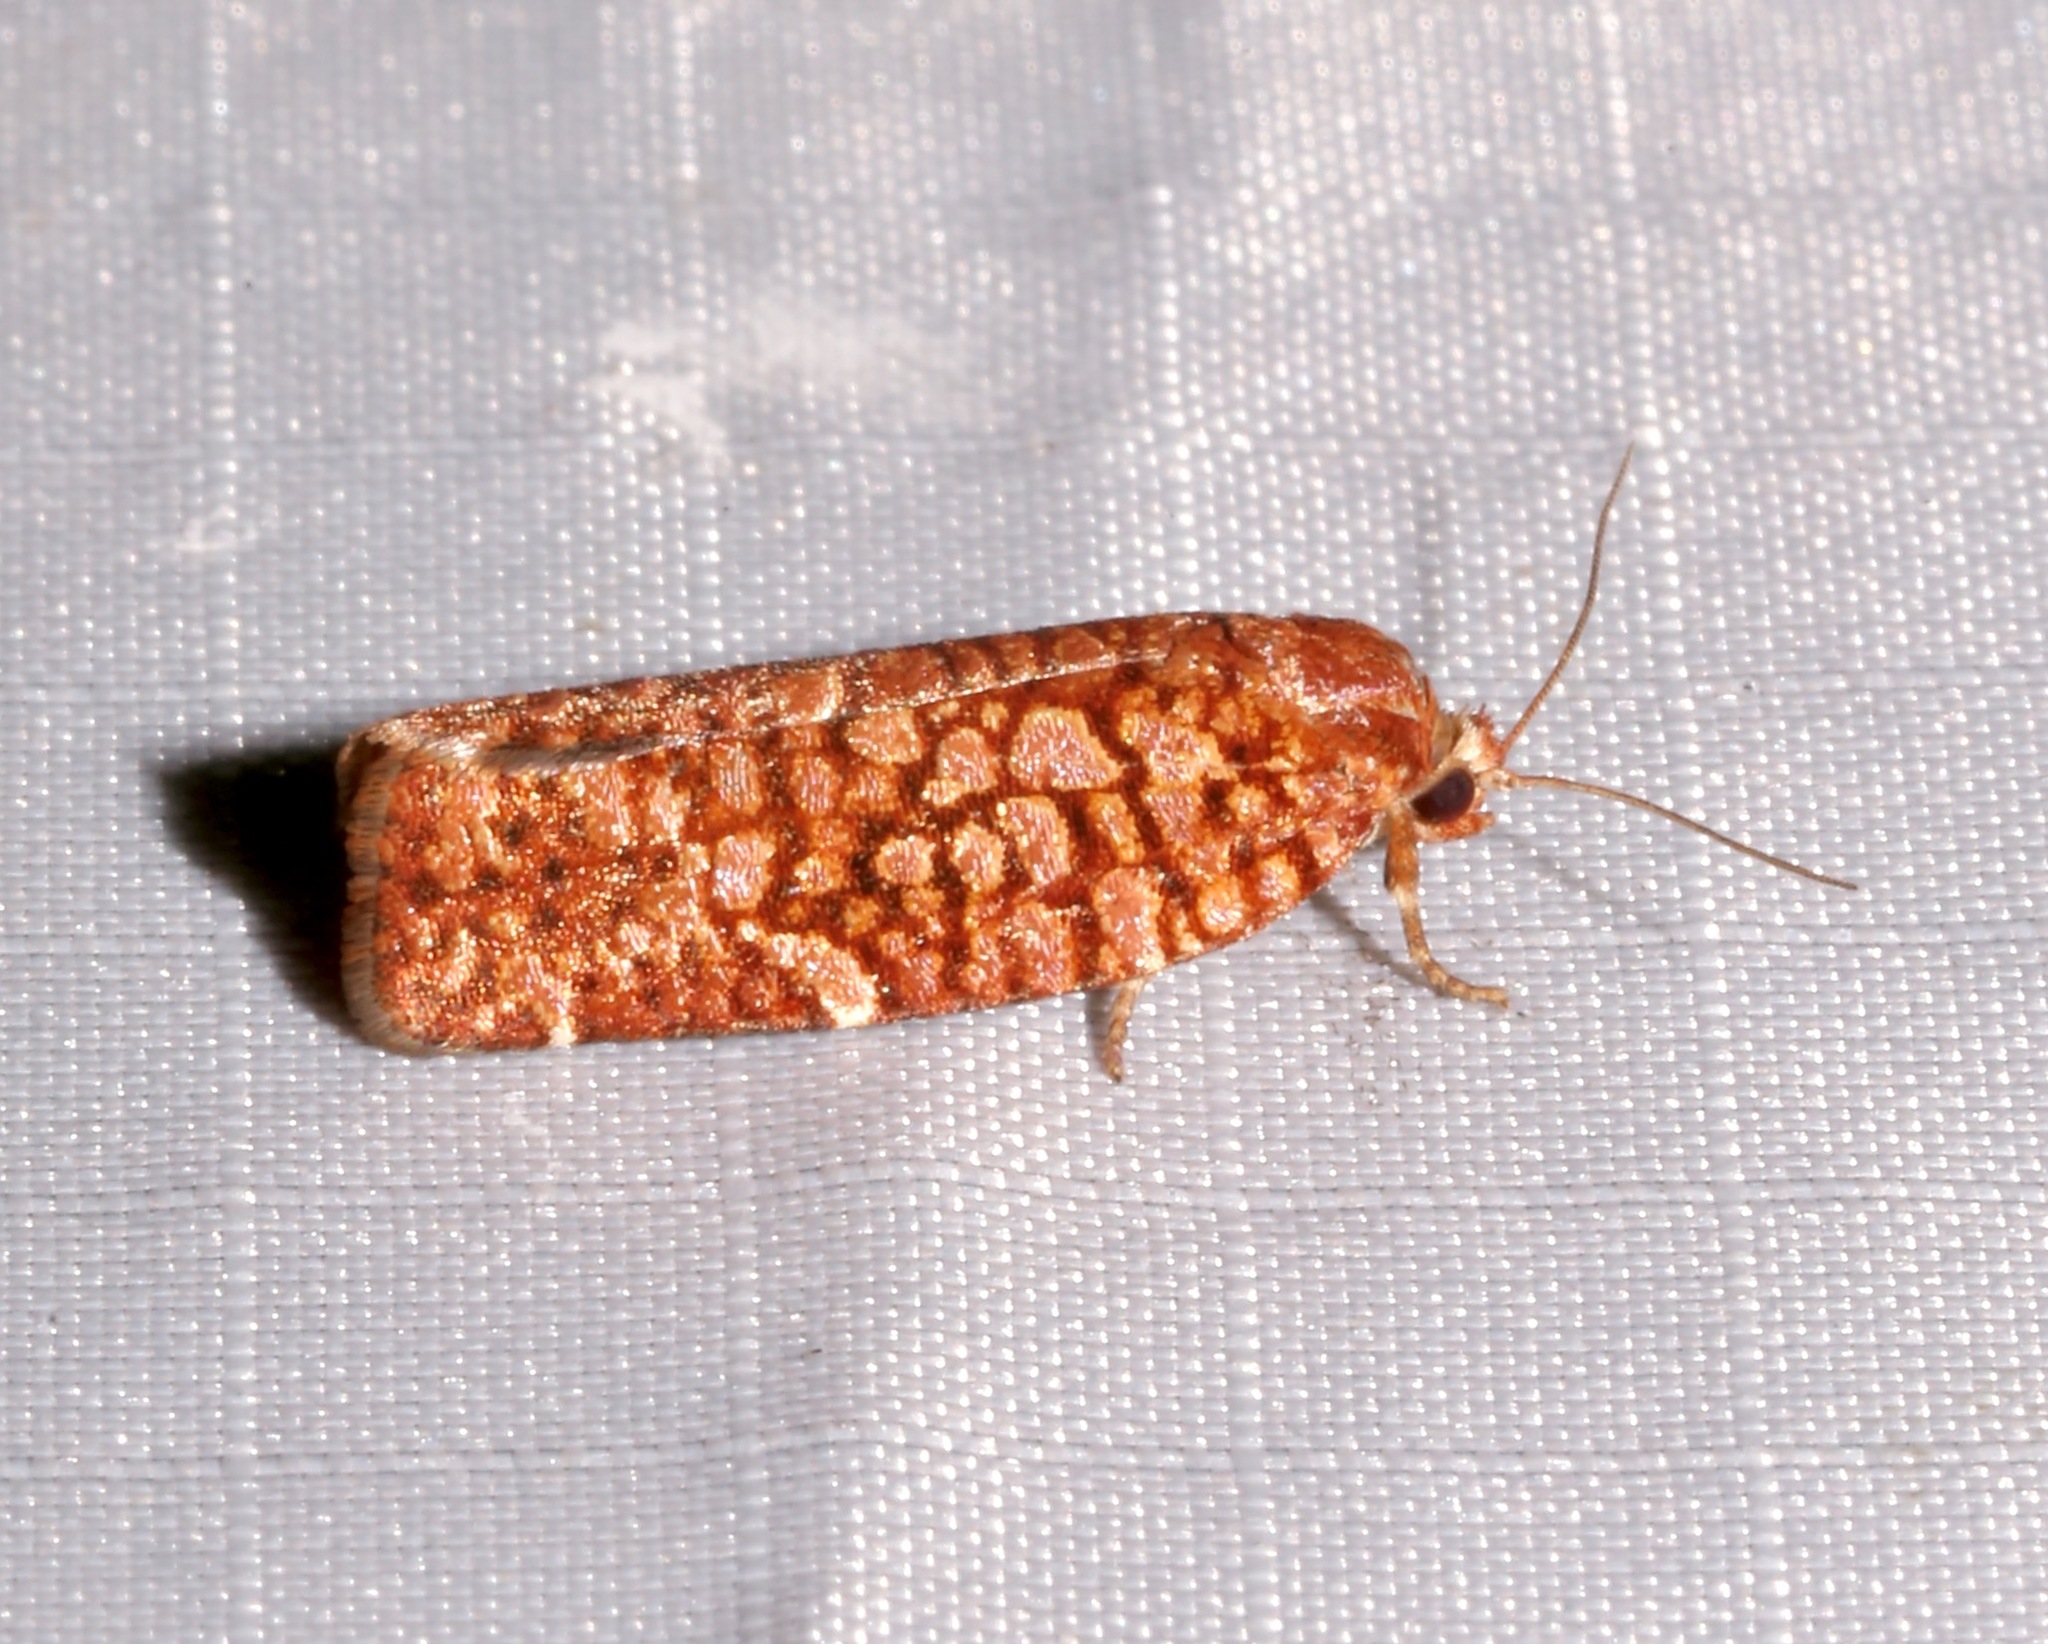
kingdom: Animalia
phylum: Arthropoda
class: Insecta
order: Lepidoptera
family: Tortricidae
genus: Choristoneura
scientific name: Choristoneura pinus
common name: Jack pine budworm
